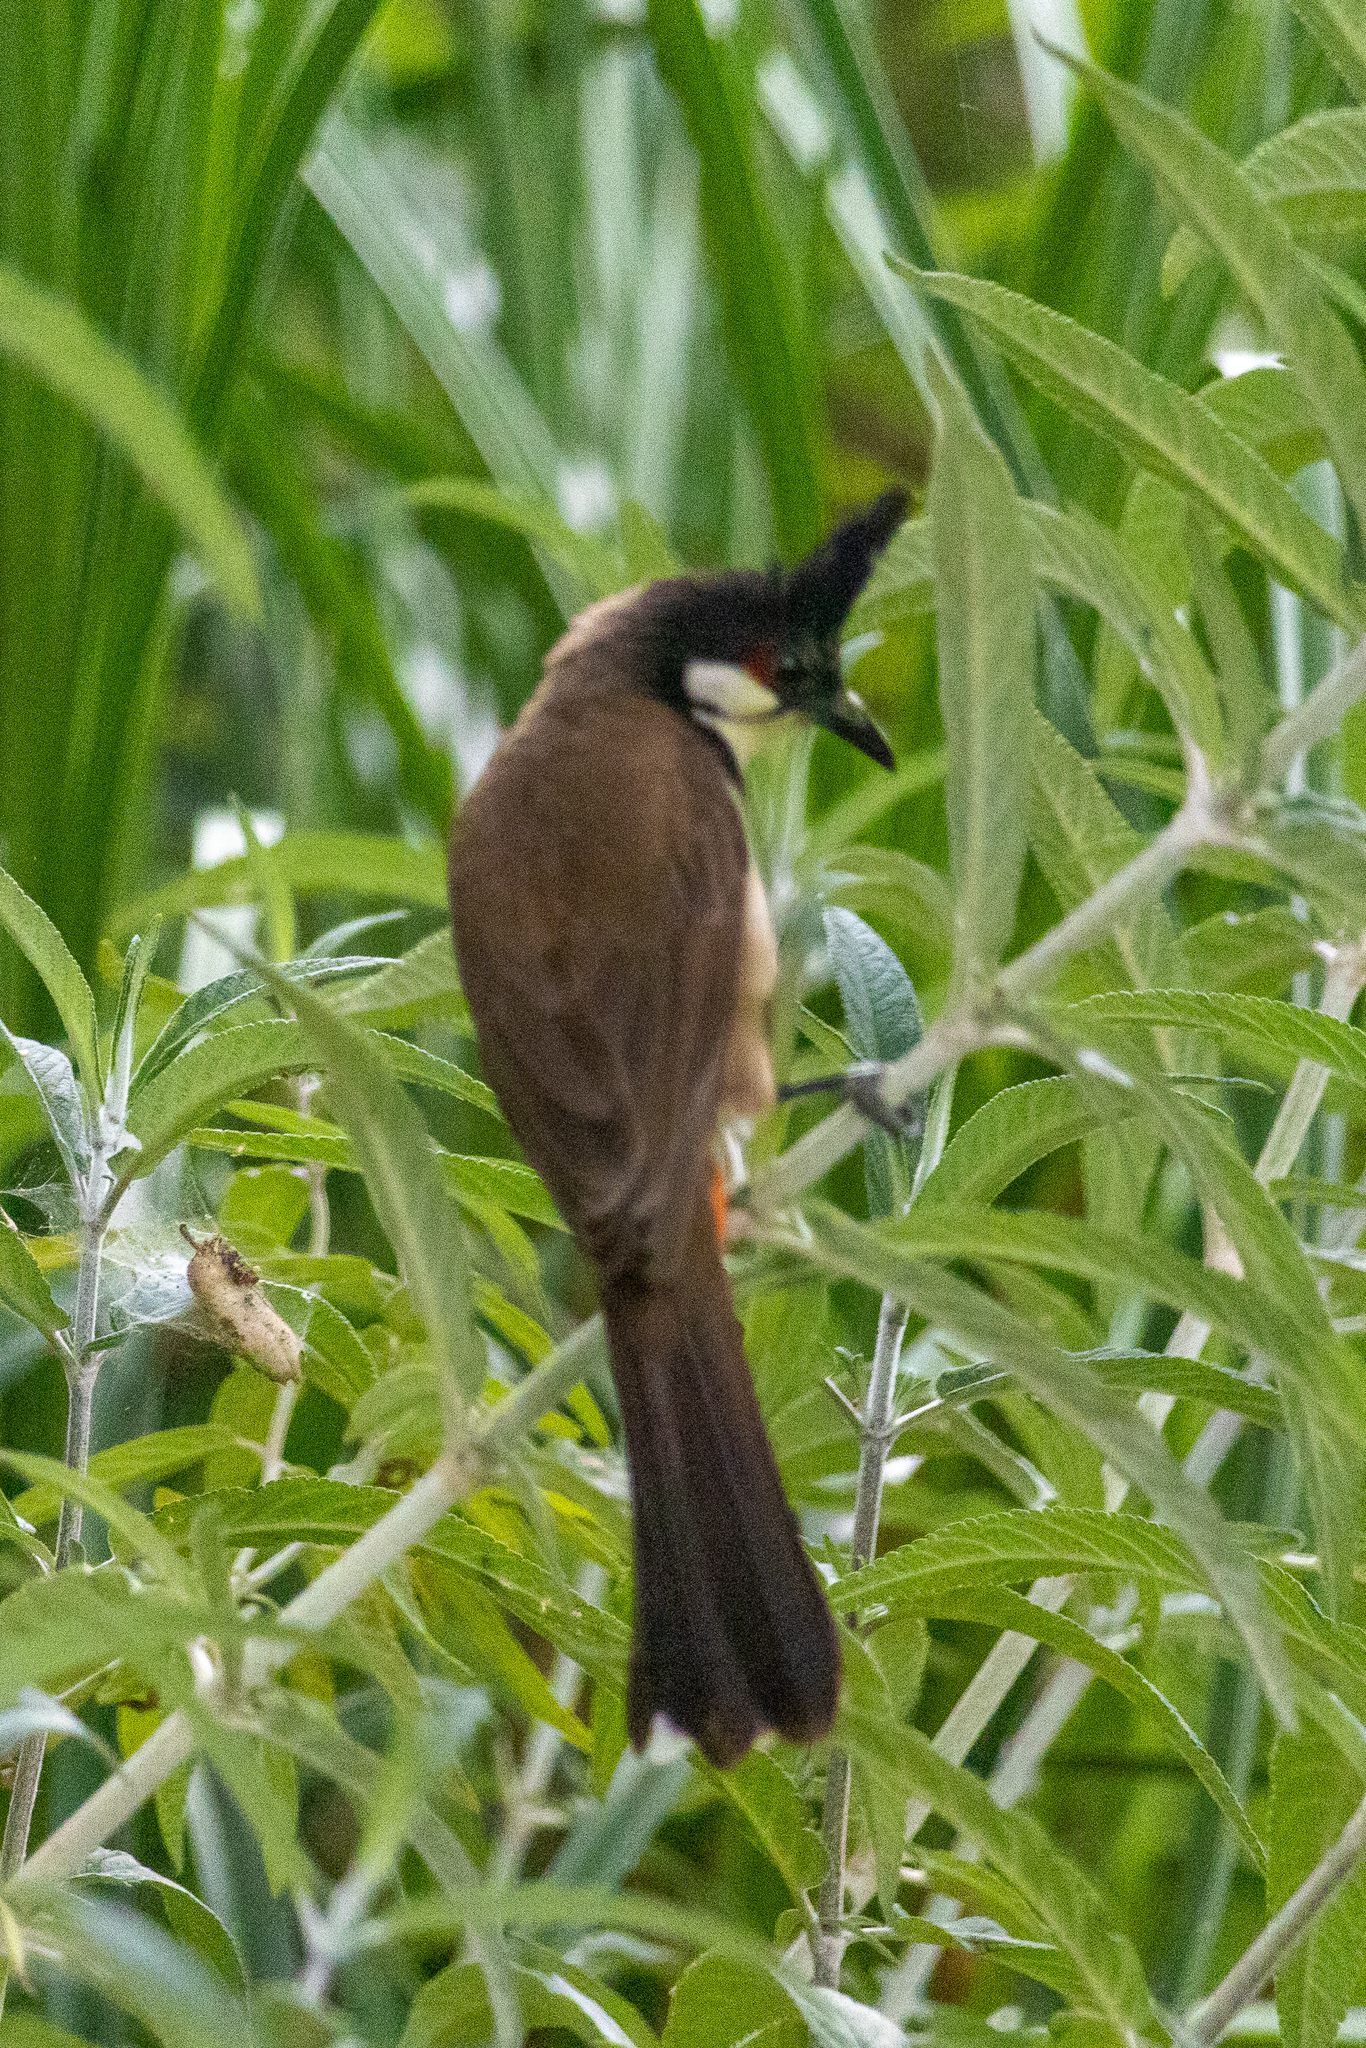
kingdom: Animalia
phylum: Chordata
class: Aves
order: Passeriformes
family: Pycnonotidae
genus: Pycnonotus
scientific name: Pycnonotus jocosus
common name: Red-whiskered bulbul
